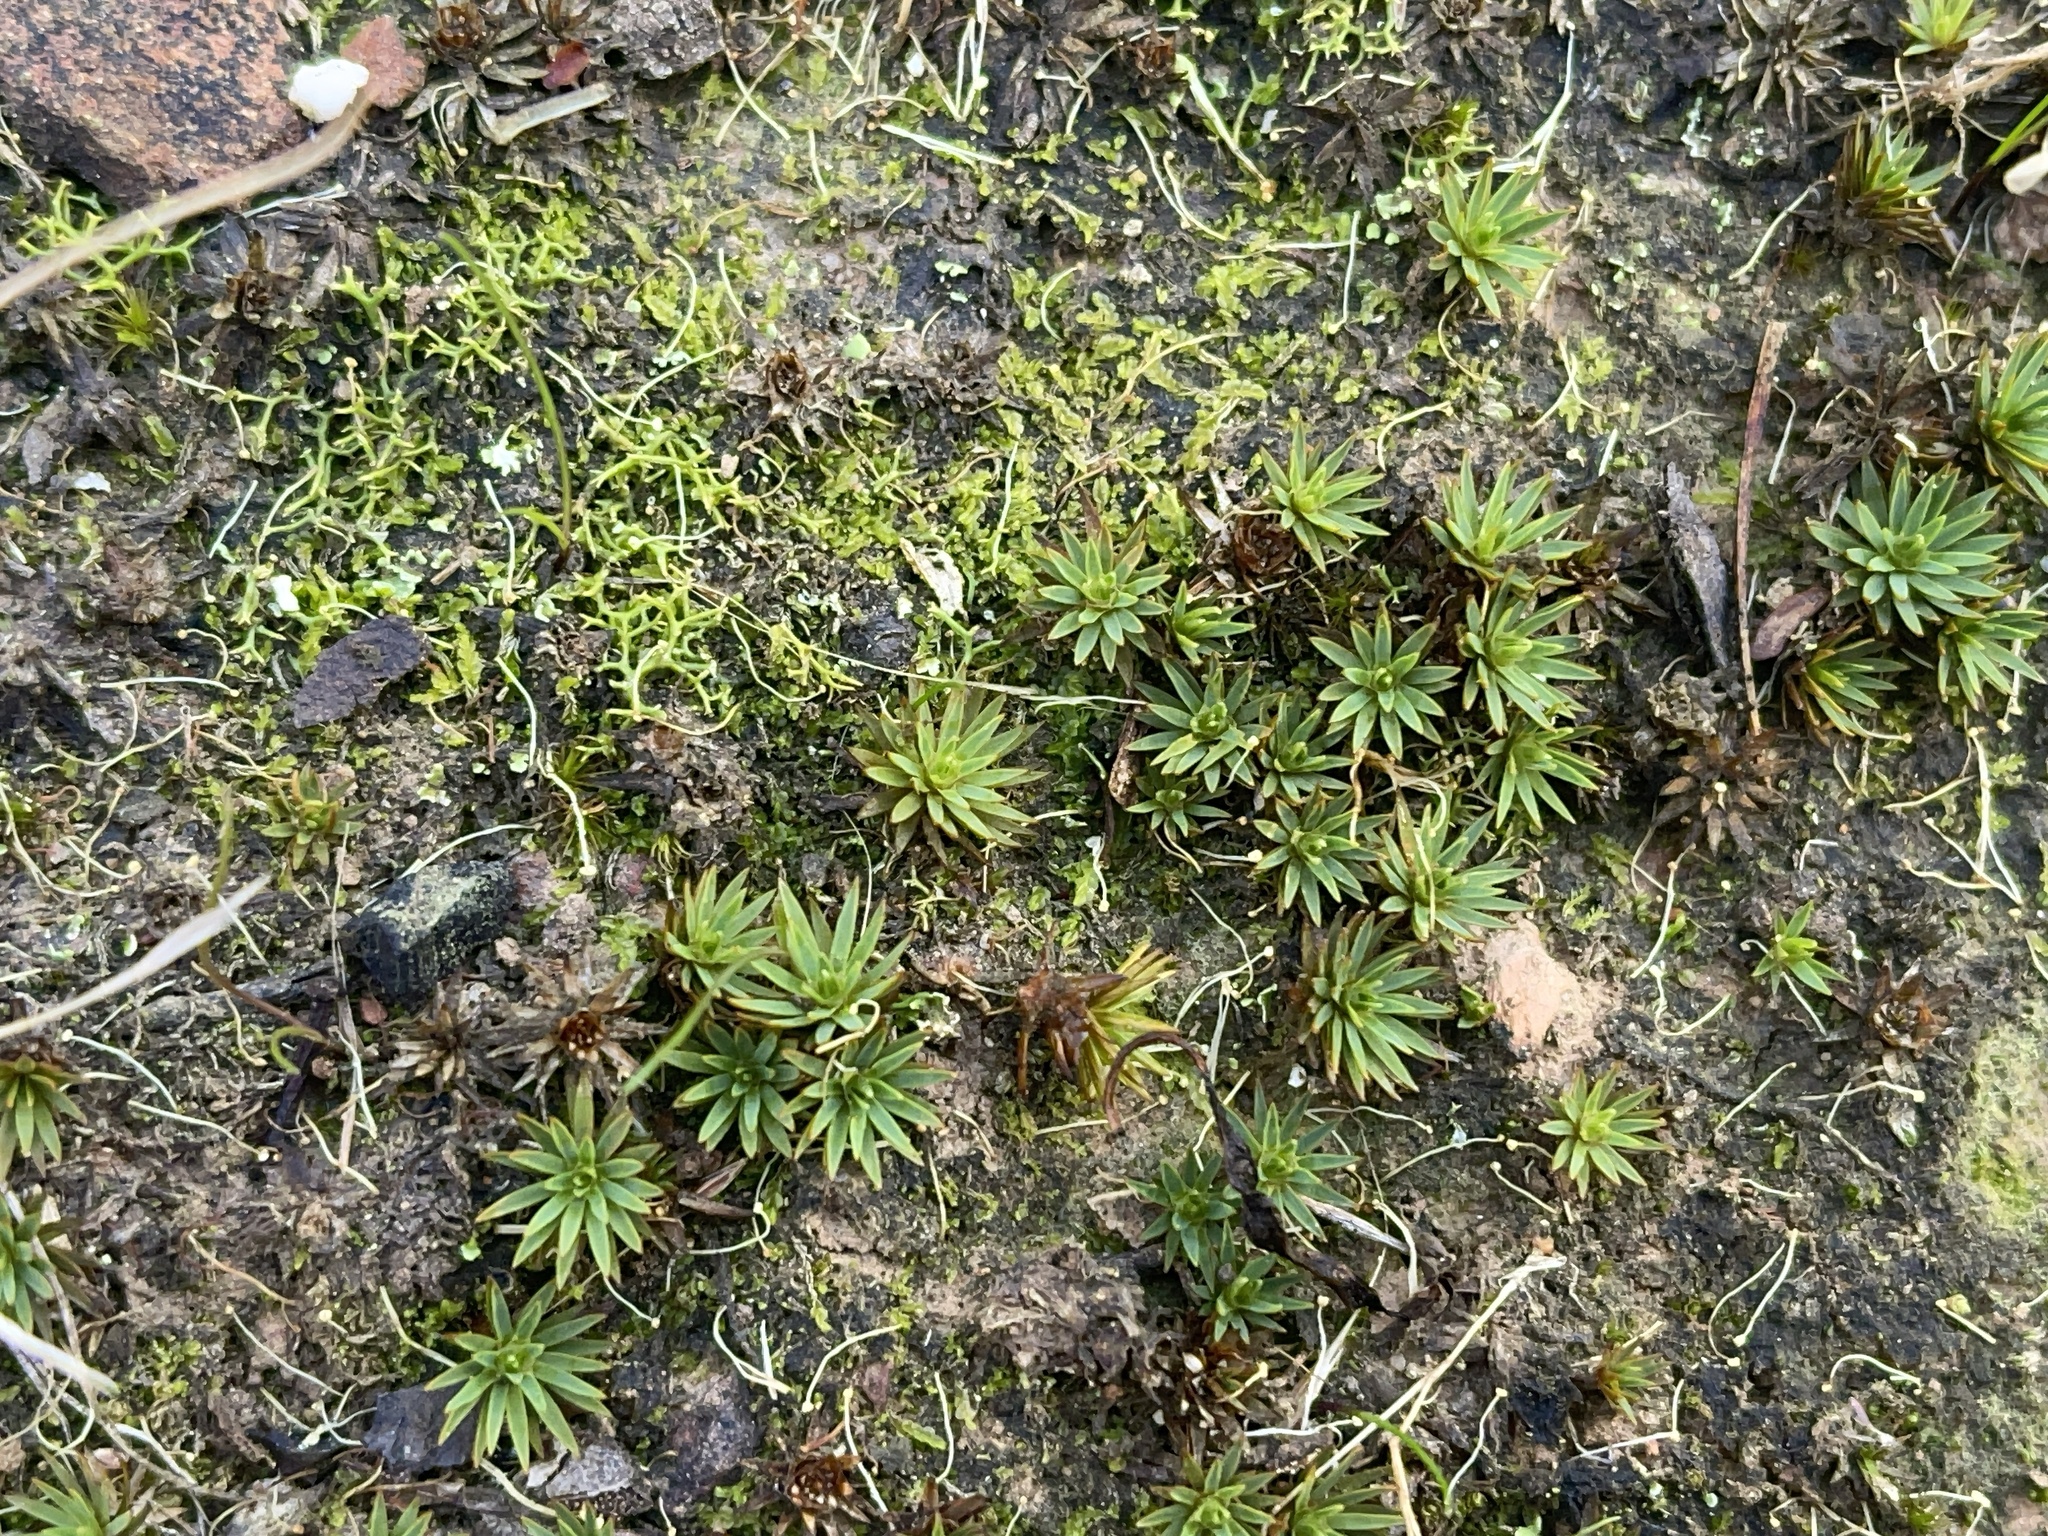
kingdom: Plantae
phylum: Bryophyta
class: Polytrichopsida
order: Polytrichales
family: Polytrichaceae
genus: Dawsonia
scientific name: Dawsonia longiseta
